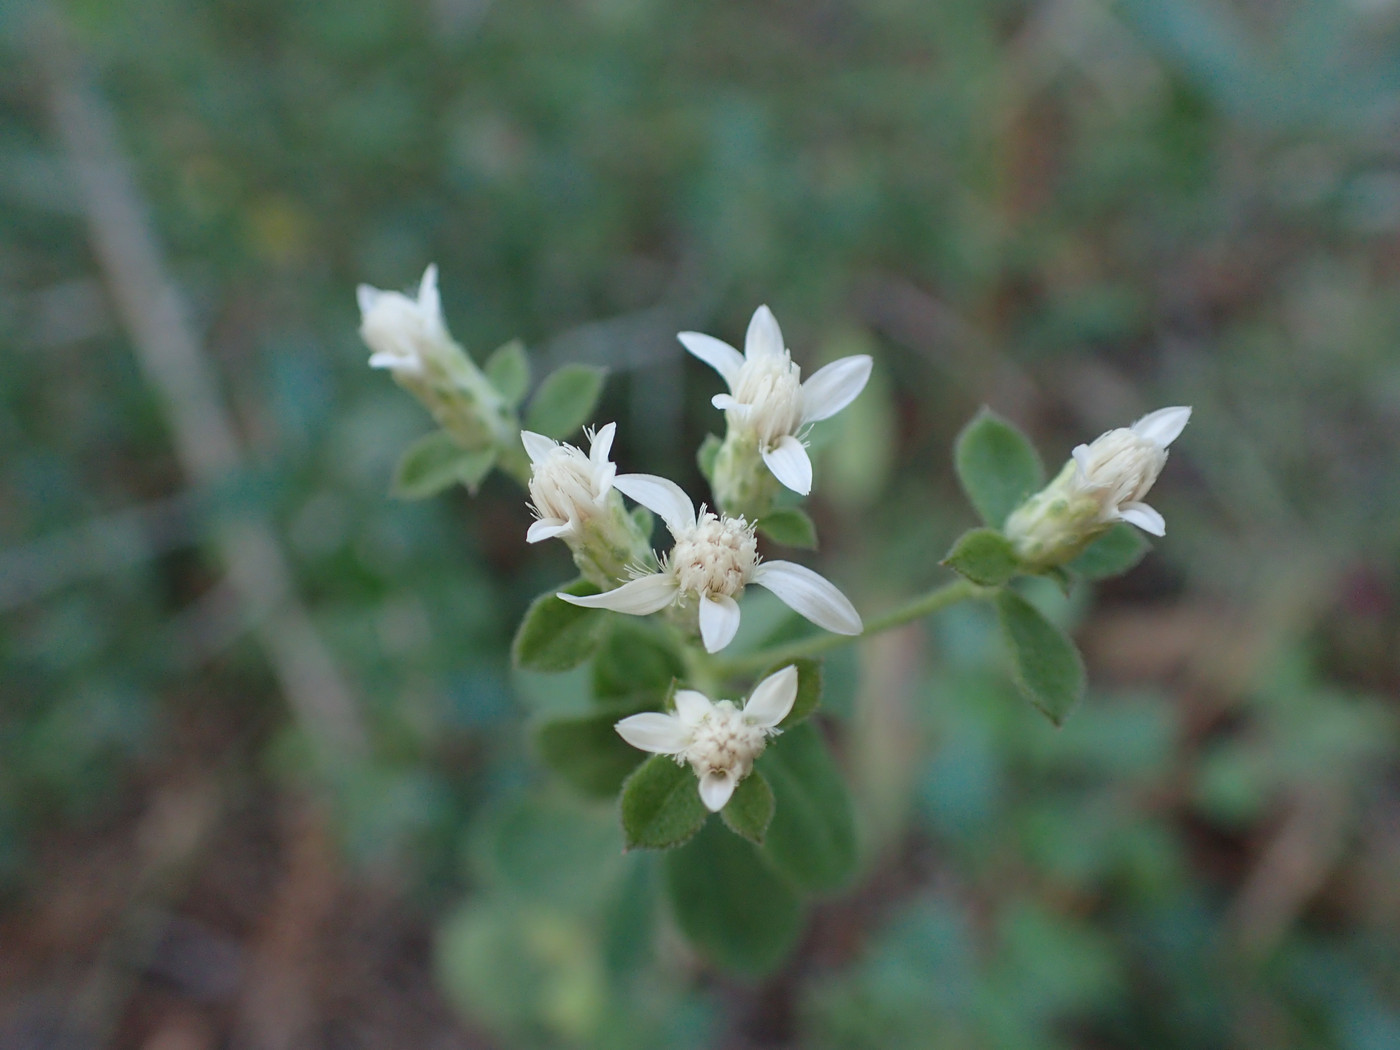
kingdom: Plantae
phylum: Tracheophyta
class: Magnoliopsida
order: Asterales
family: Asteraceae
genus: Sericocarpus
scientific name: Sericocarpus tortifolius
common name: Dixie aster
